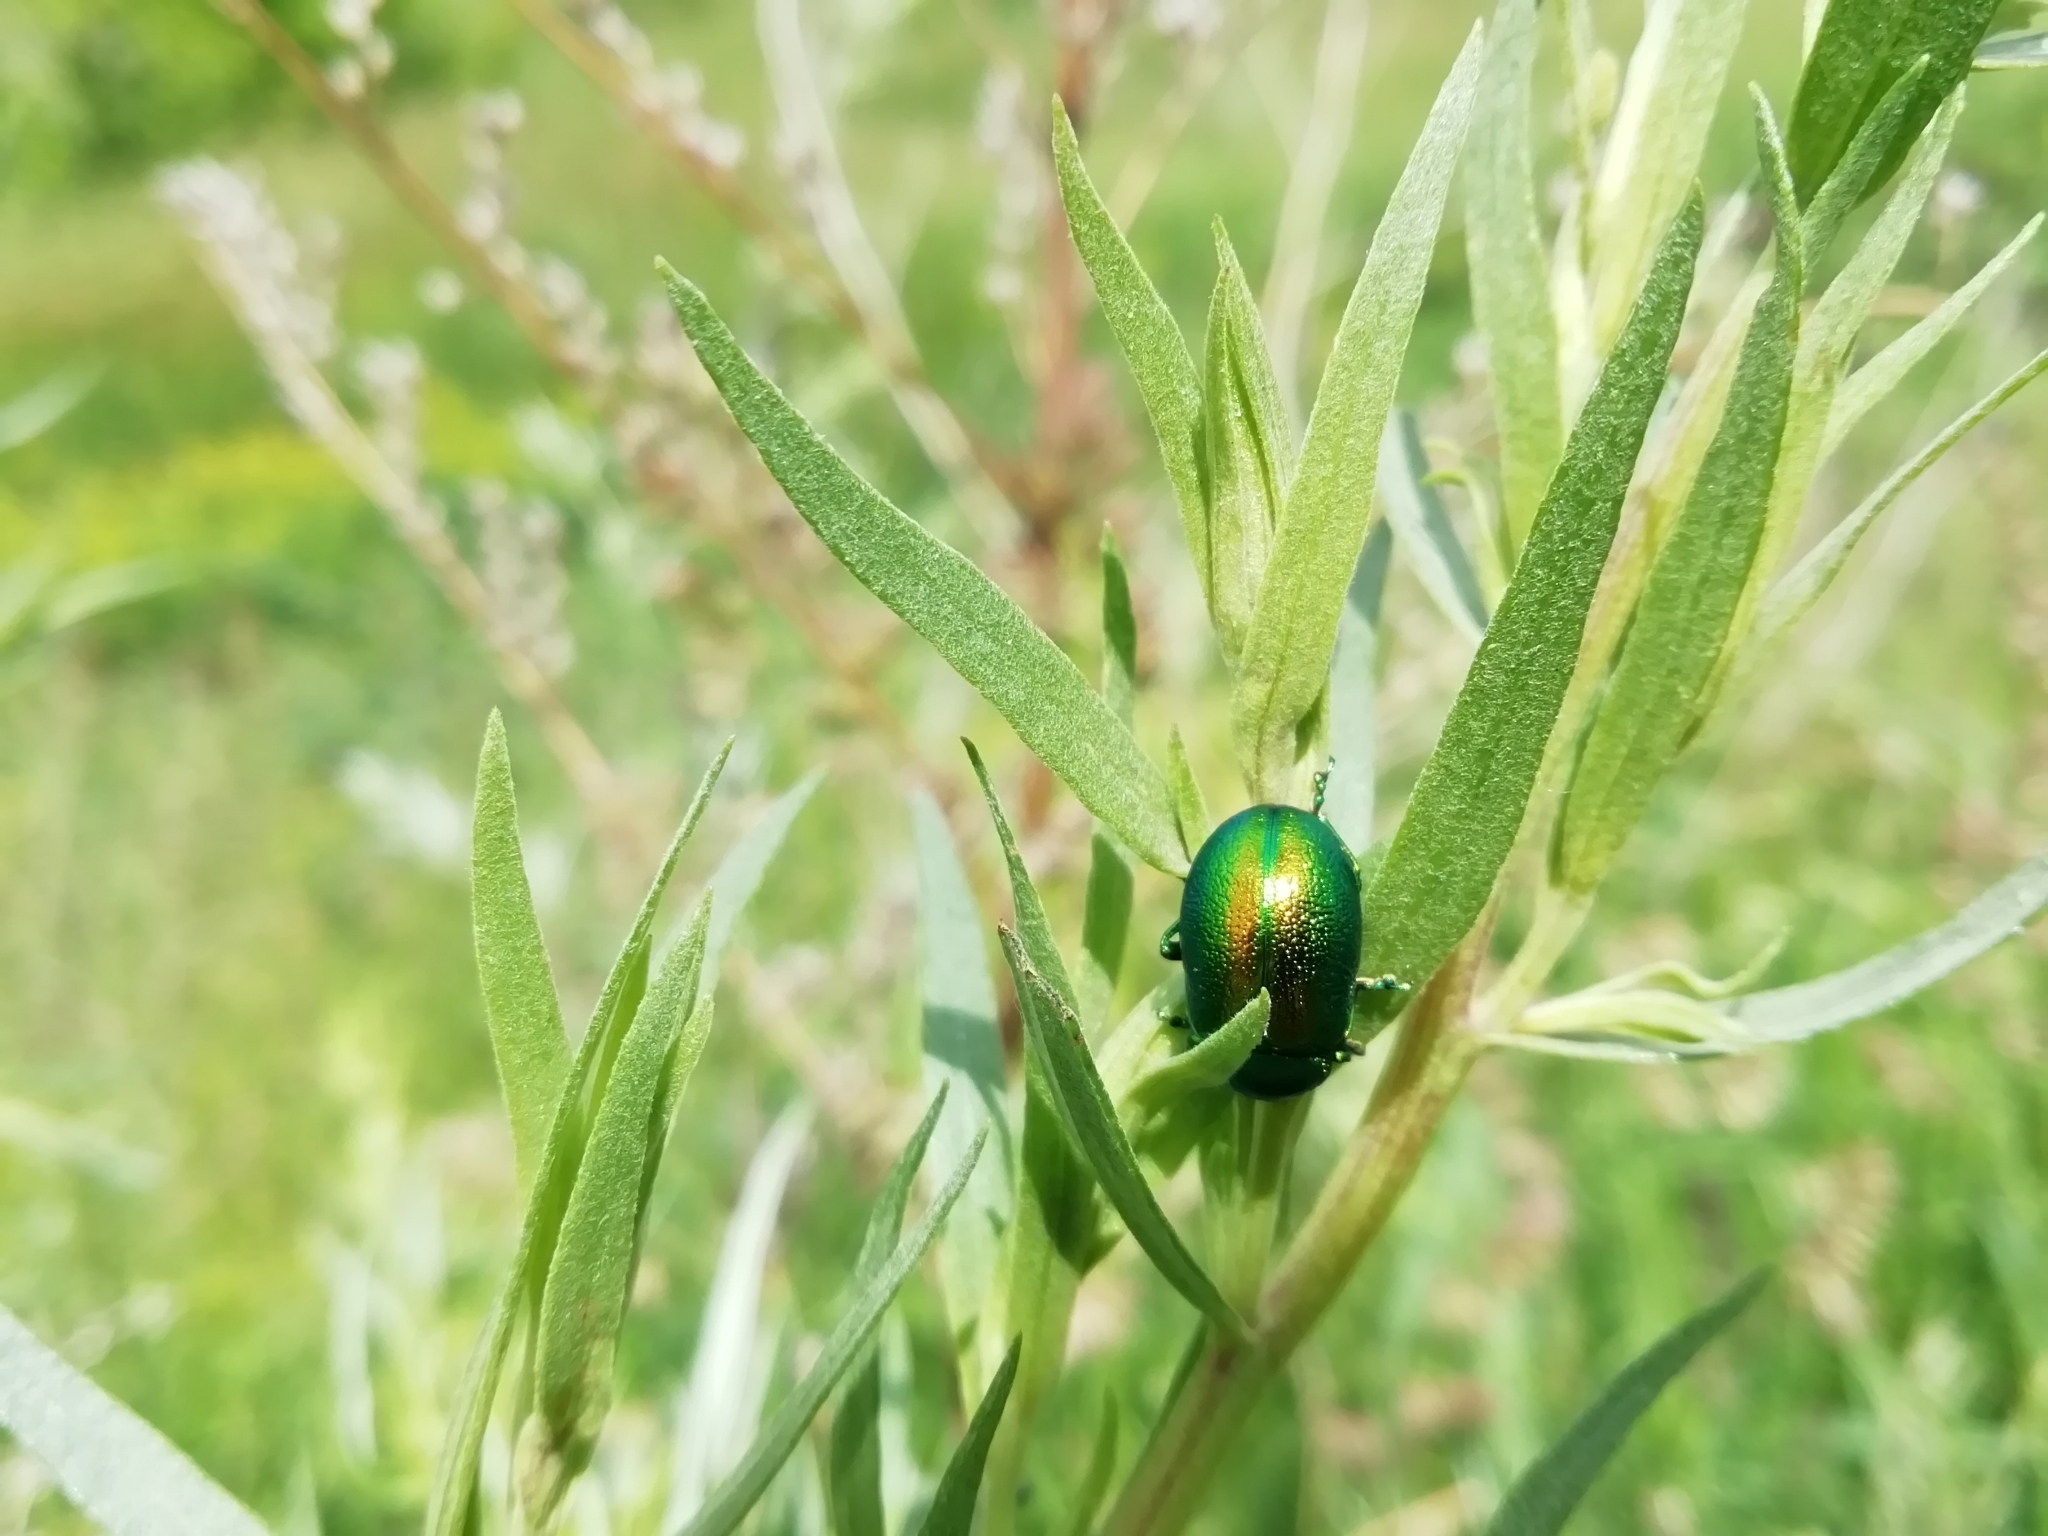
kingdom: Animalia
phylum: Arthropoda
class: Insecta
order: Coleoptera
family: Chrysomelidae
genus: Chrysolina
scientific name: Chrysolina graminis
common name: Tansey beetle
